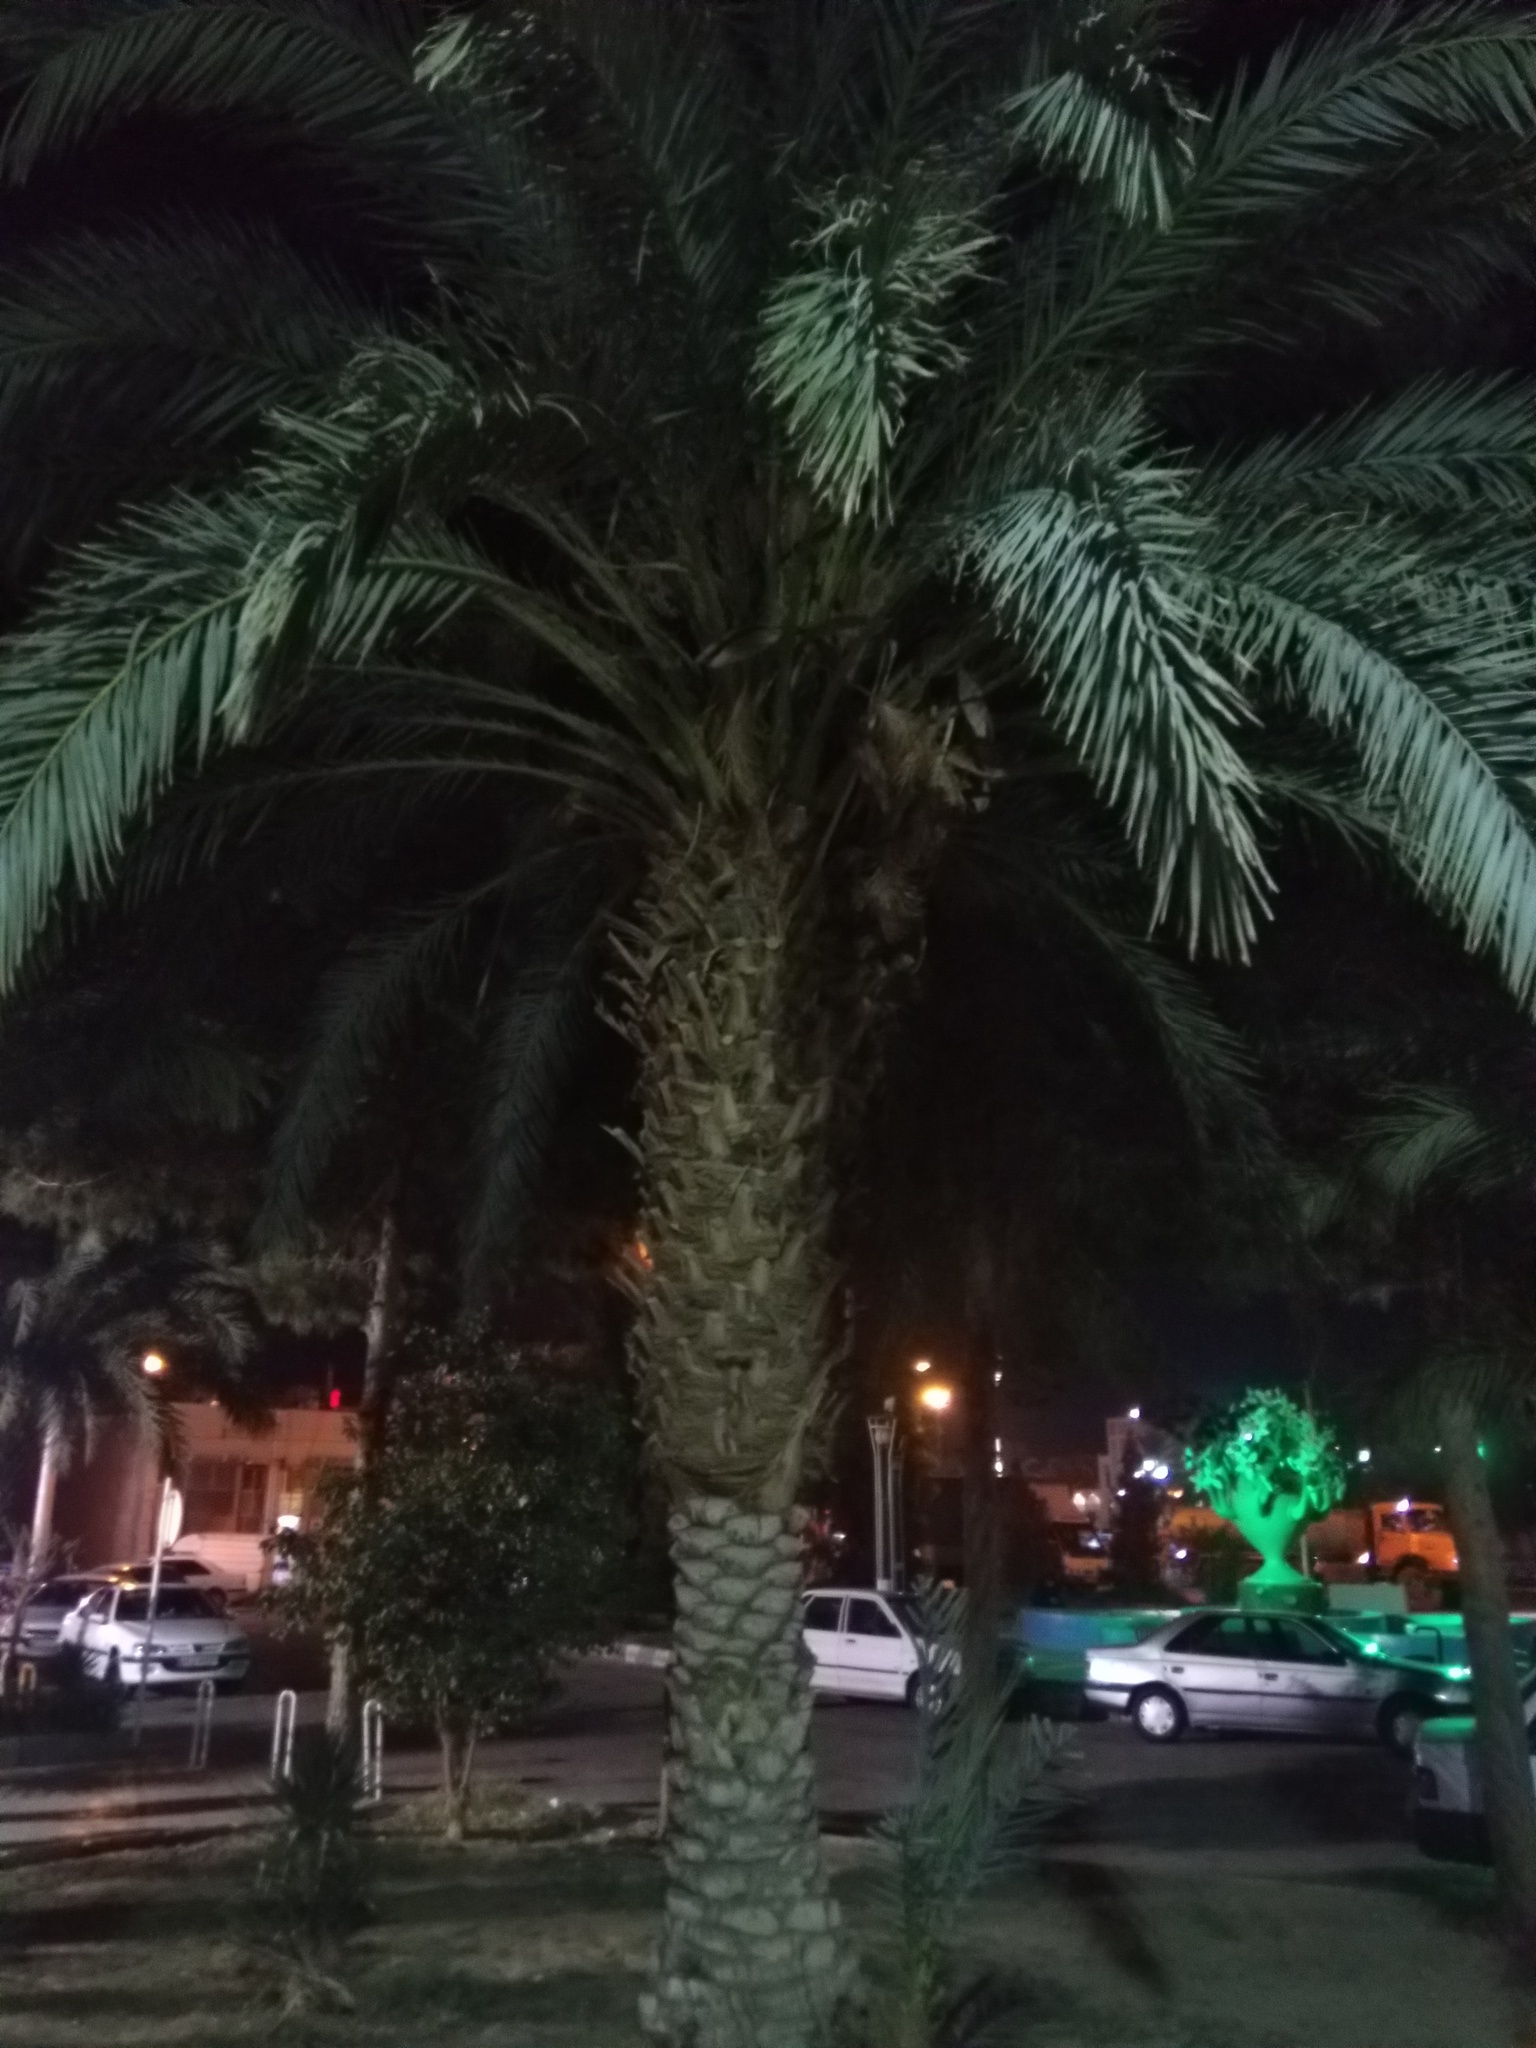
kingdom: Plantae
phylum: Tracheophyta
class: Liliopsida
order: Arecales
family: Arecaceae
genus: Phoenix
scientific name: Phoenix dactylifera
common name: Date palm
